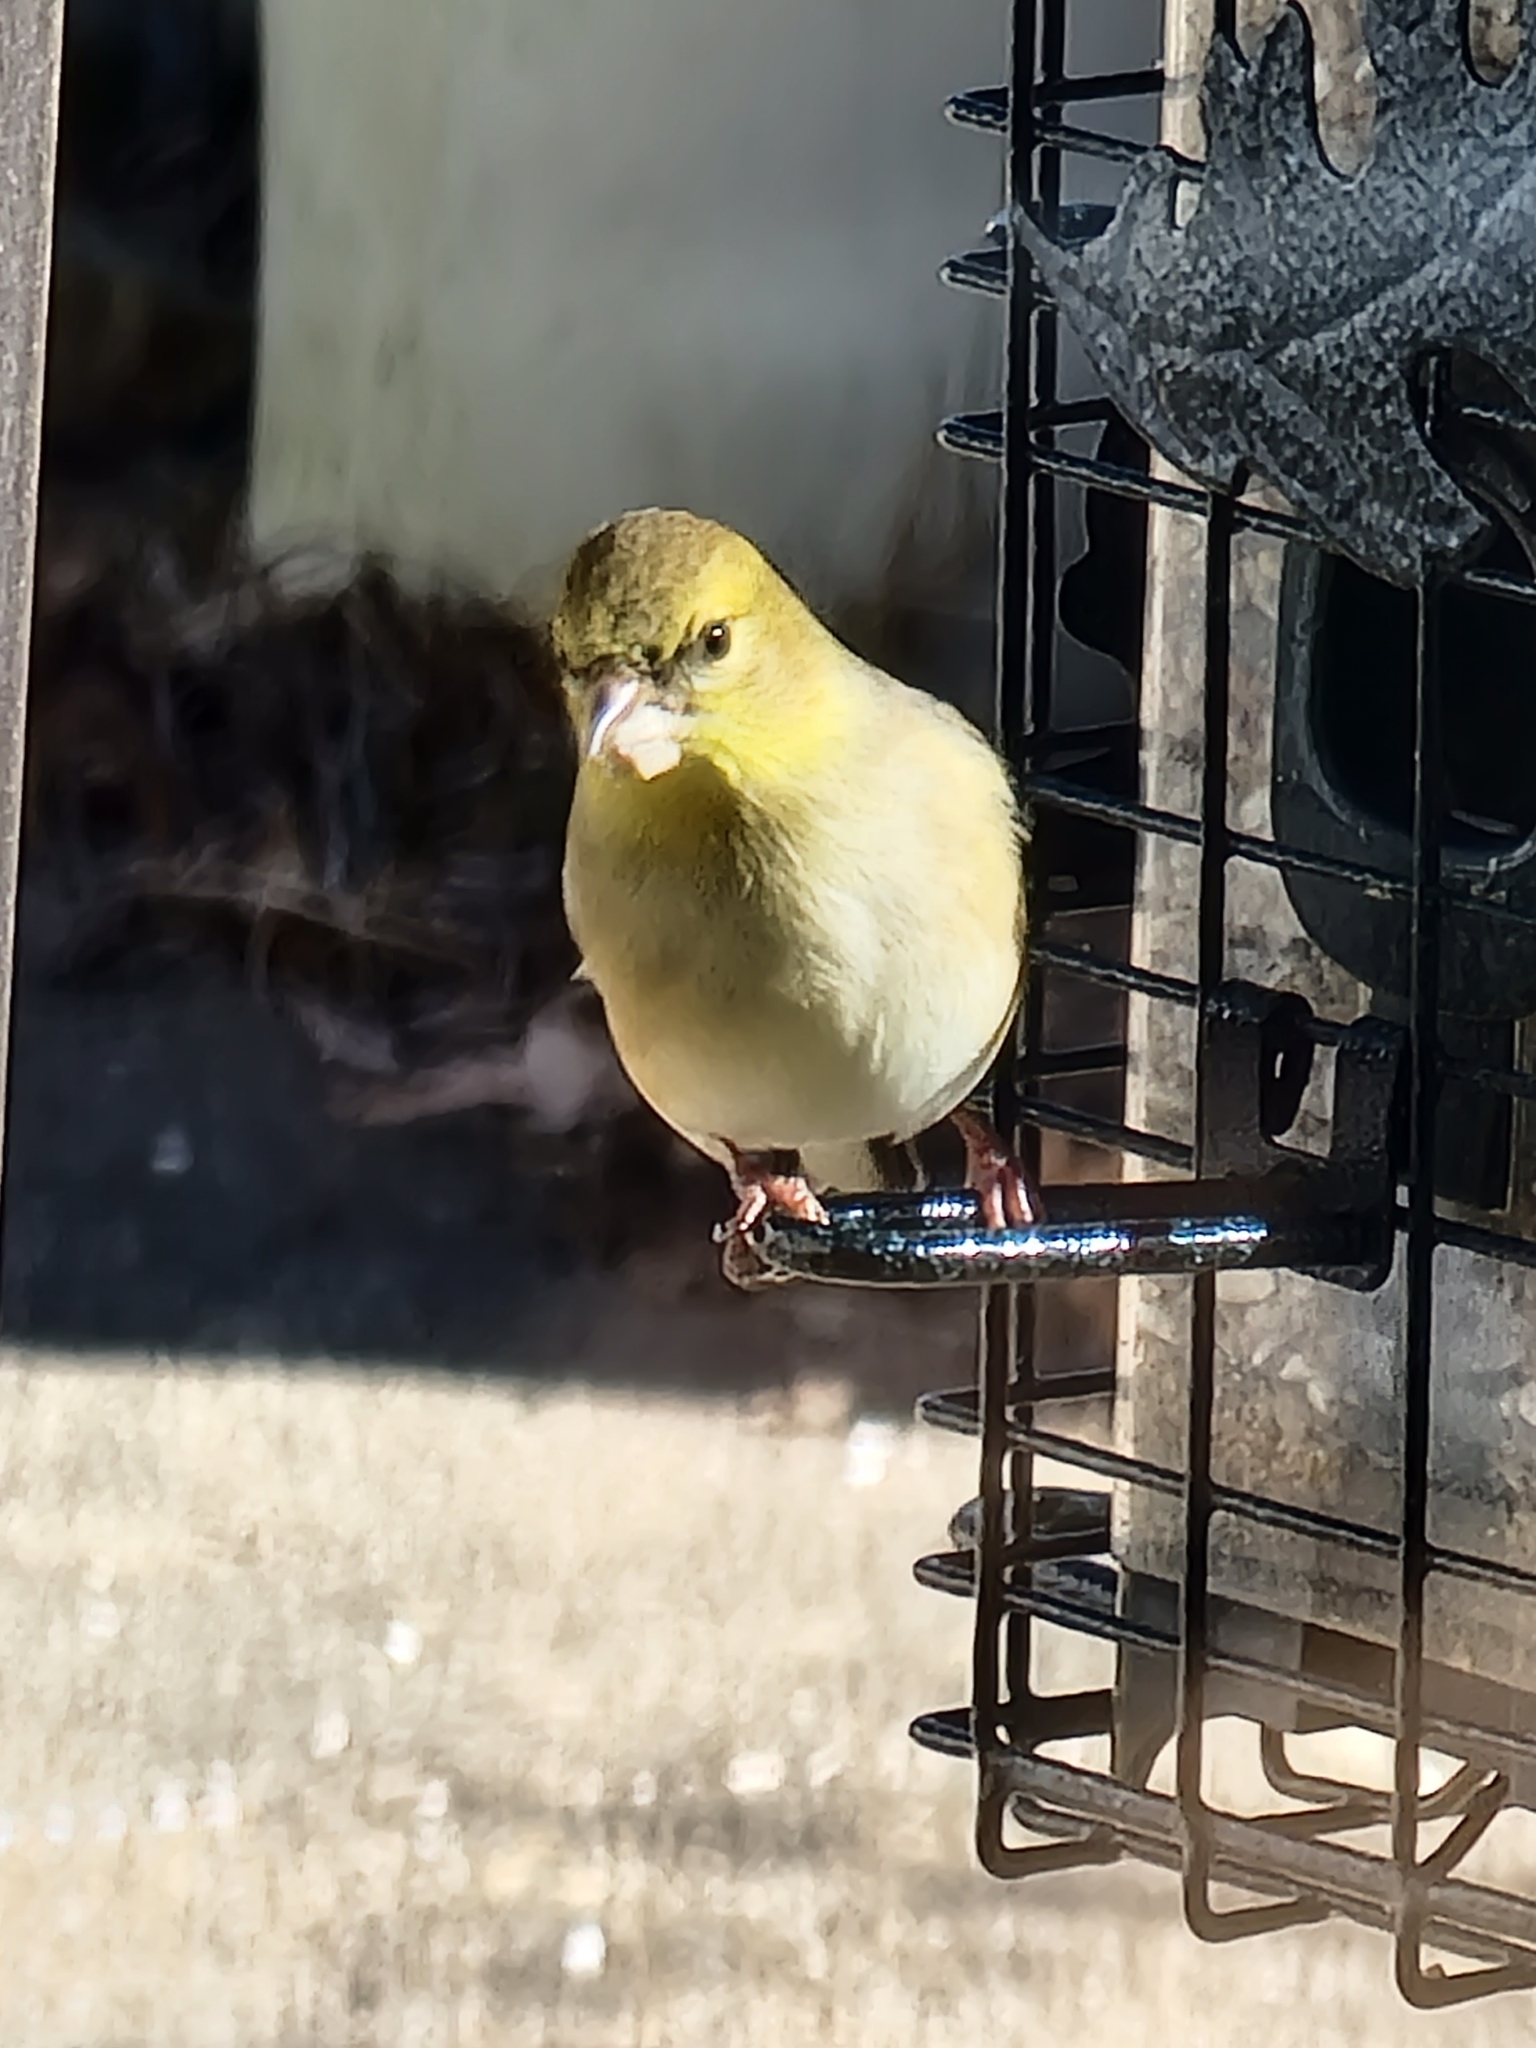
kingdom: Animalia
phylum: Chordata
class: Aves
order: Passeriformes
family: Fringillidae
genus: Spinus
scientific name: Spinus tristis
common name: American goldfinch
